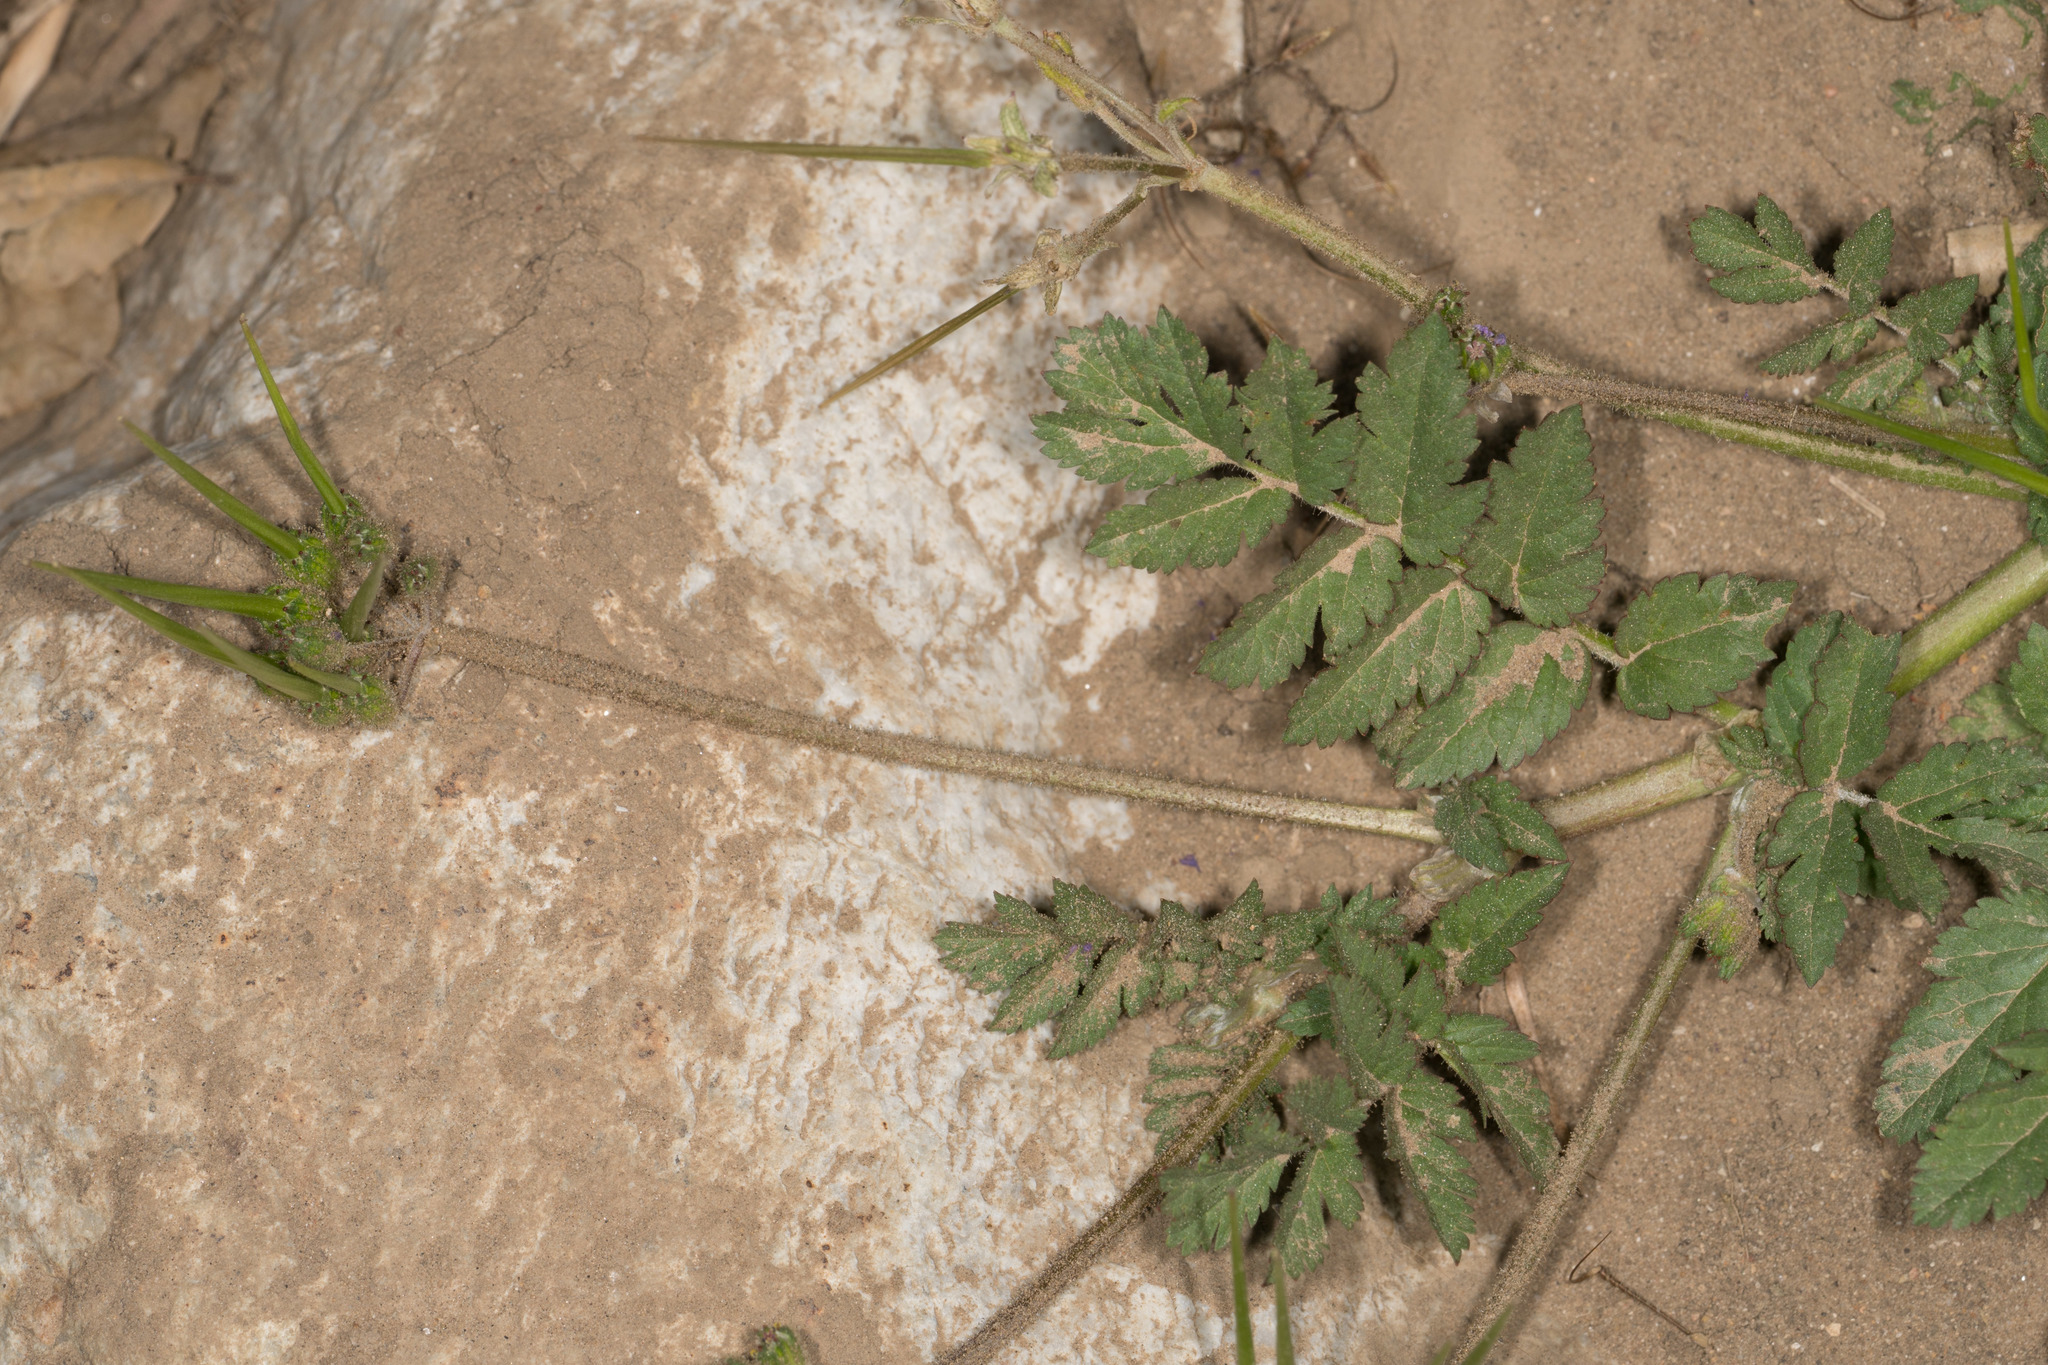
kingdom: Plantae
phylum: Tracheophyta
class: Magnoliopsida
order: Geraniales
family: Geraniaceae
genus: Erodium
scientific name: Erodium moschatum
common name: Musk stork's-bill
